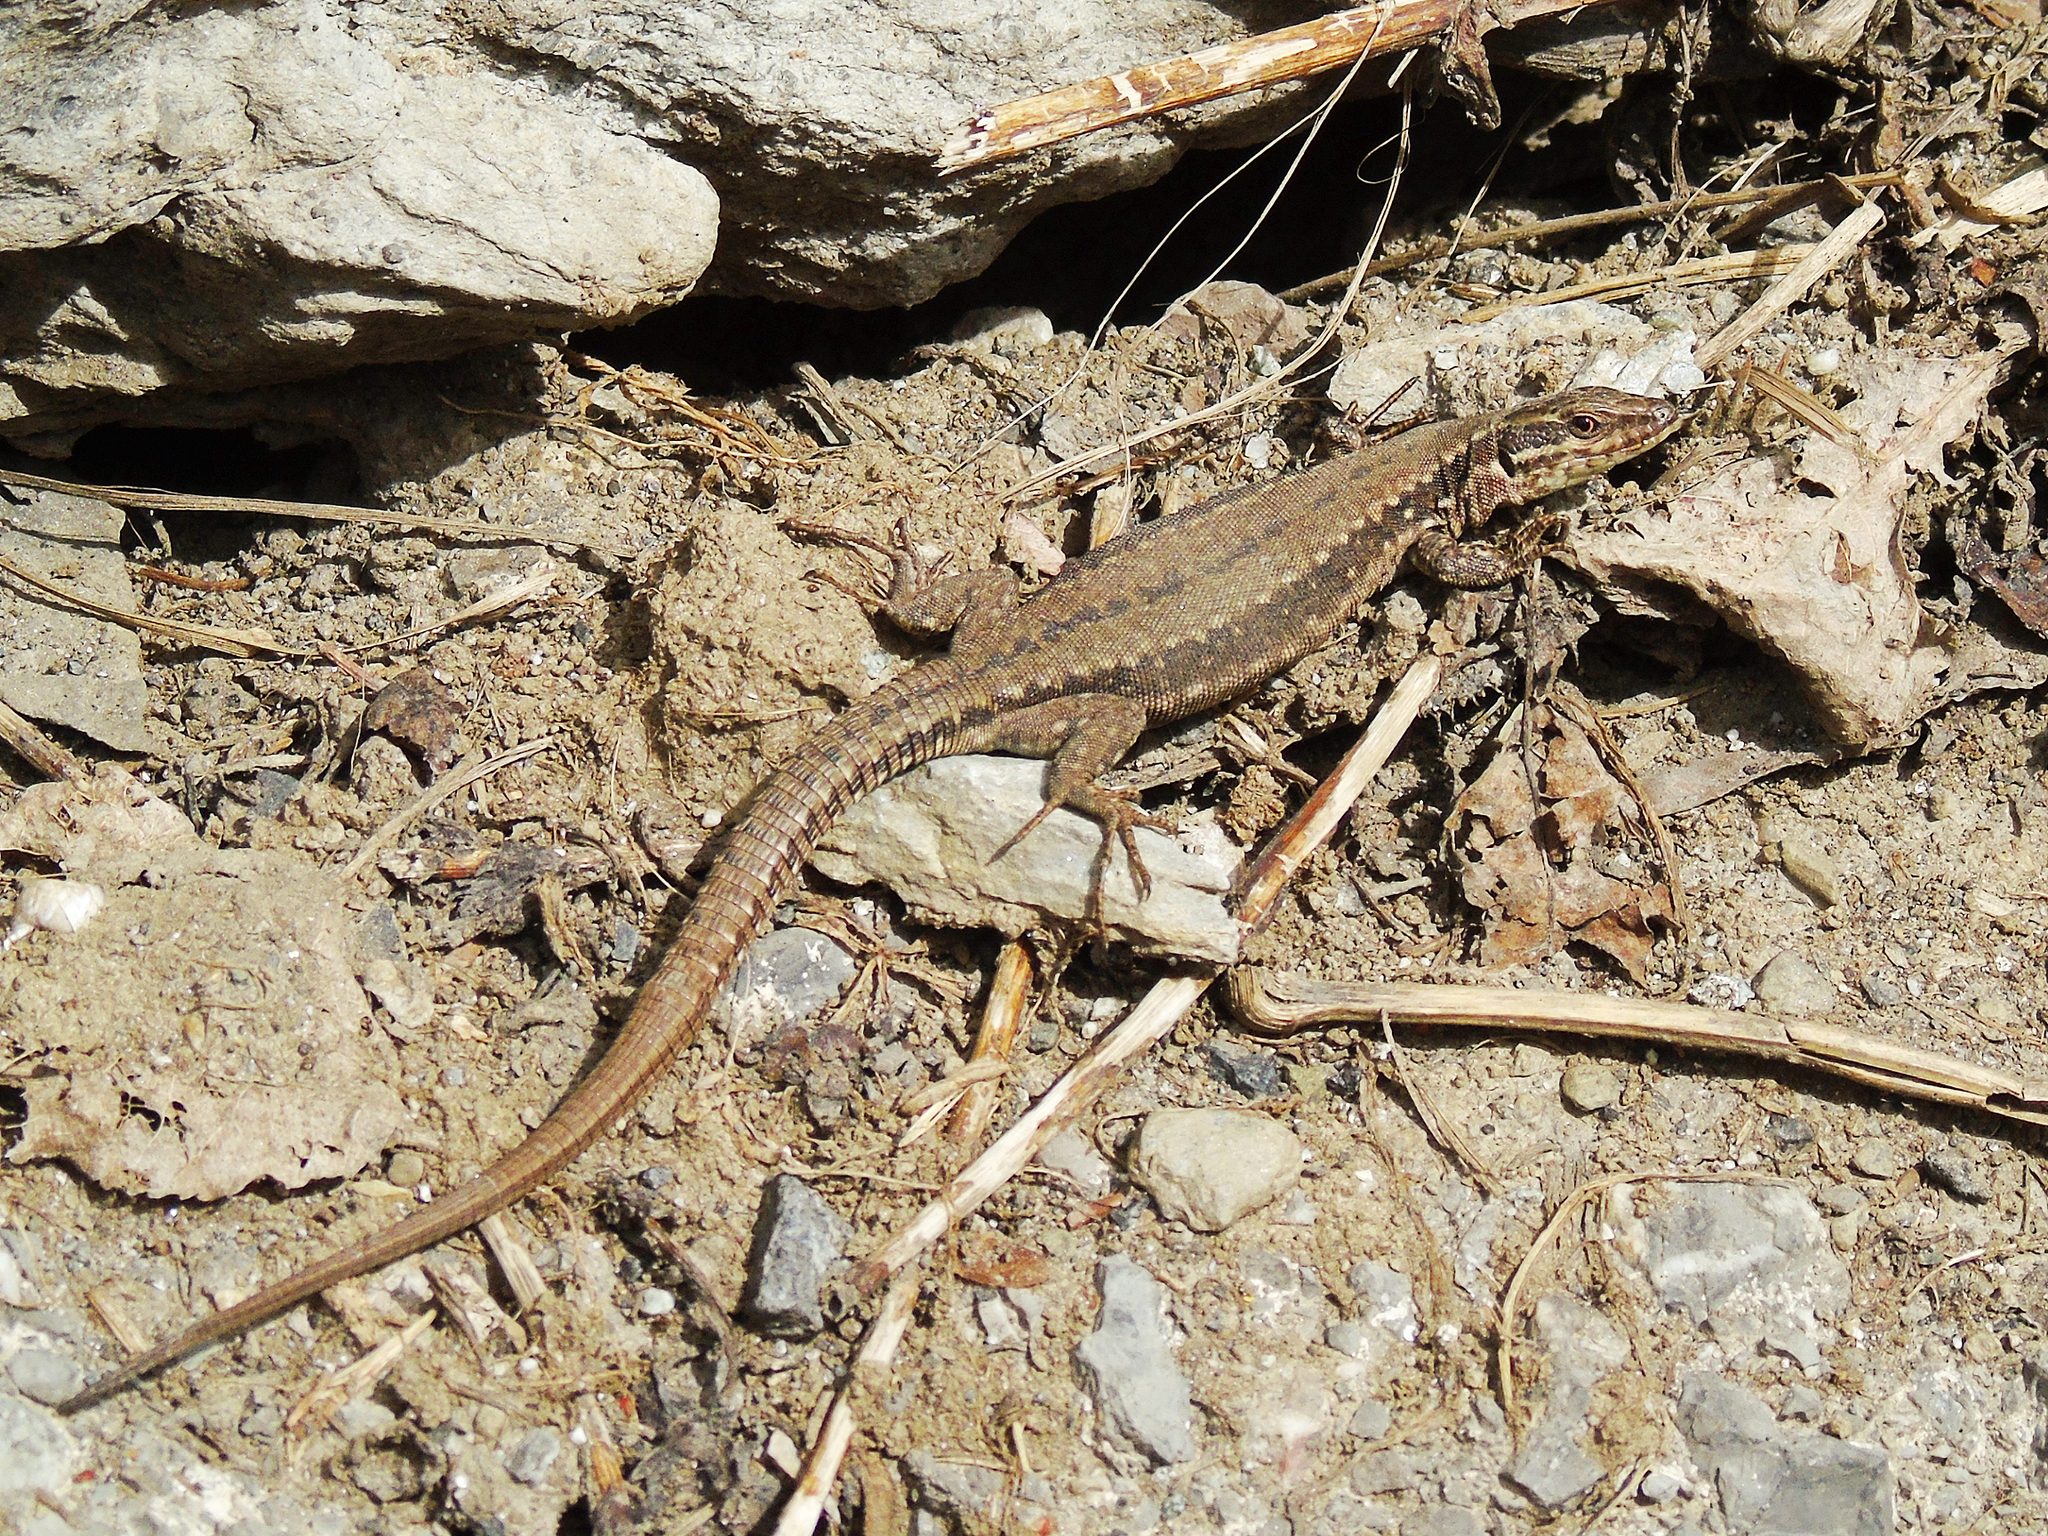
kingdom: Animalia
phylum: Chordata
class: Squamata
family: Lacertidae
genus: Podarcis
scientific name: Podarcis muralis
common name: Common wall lizard
